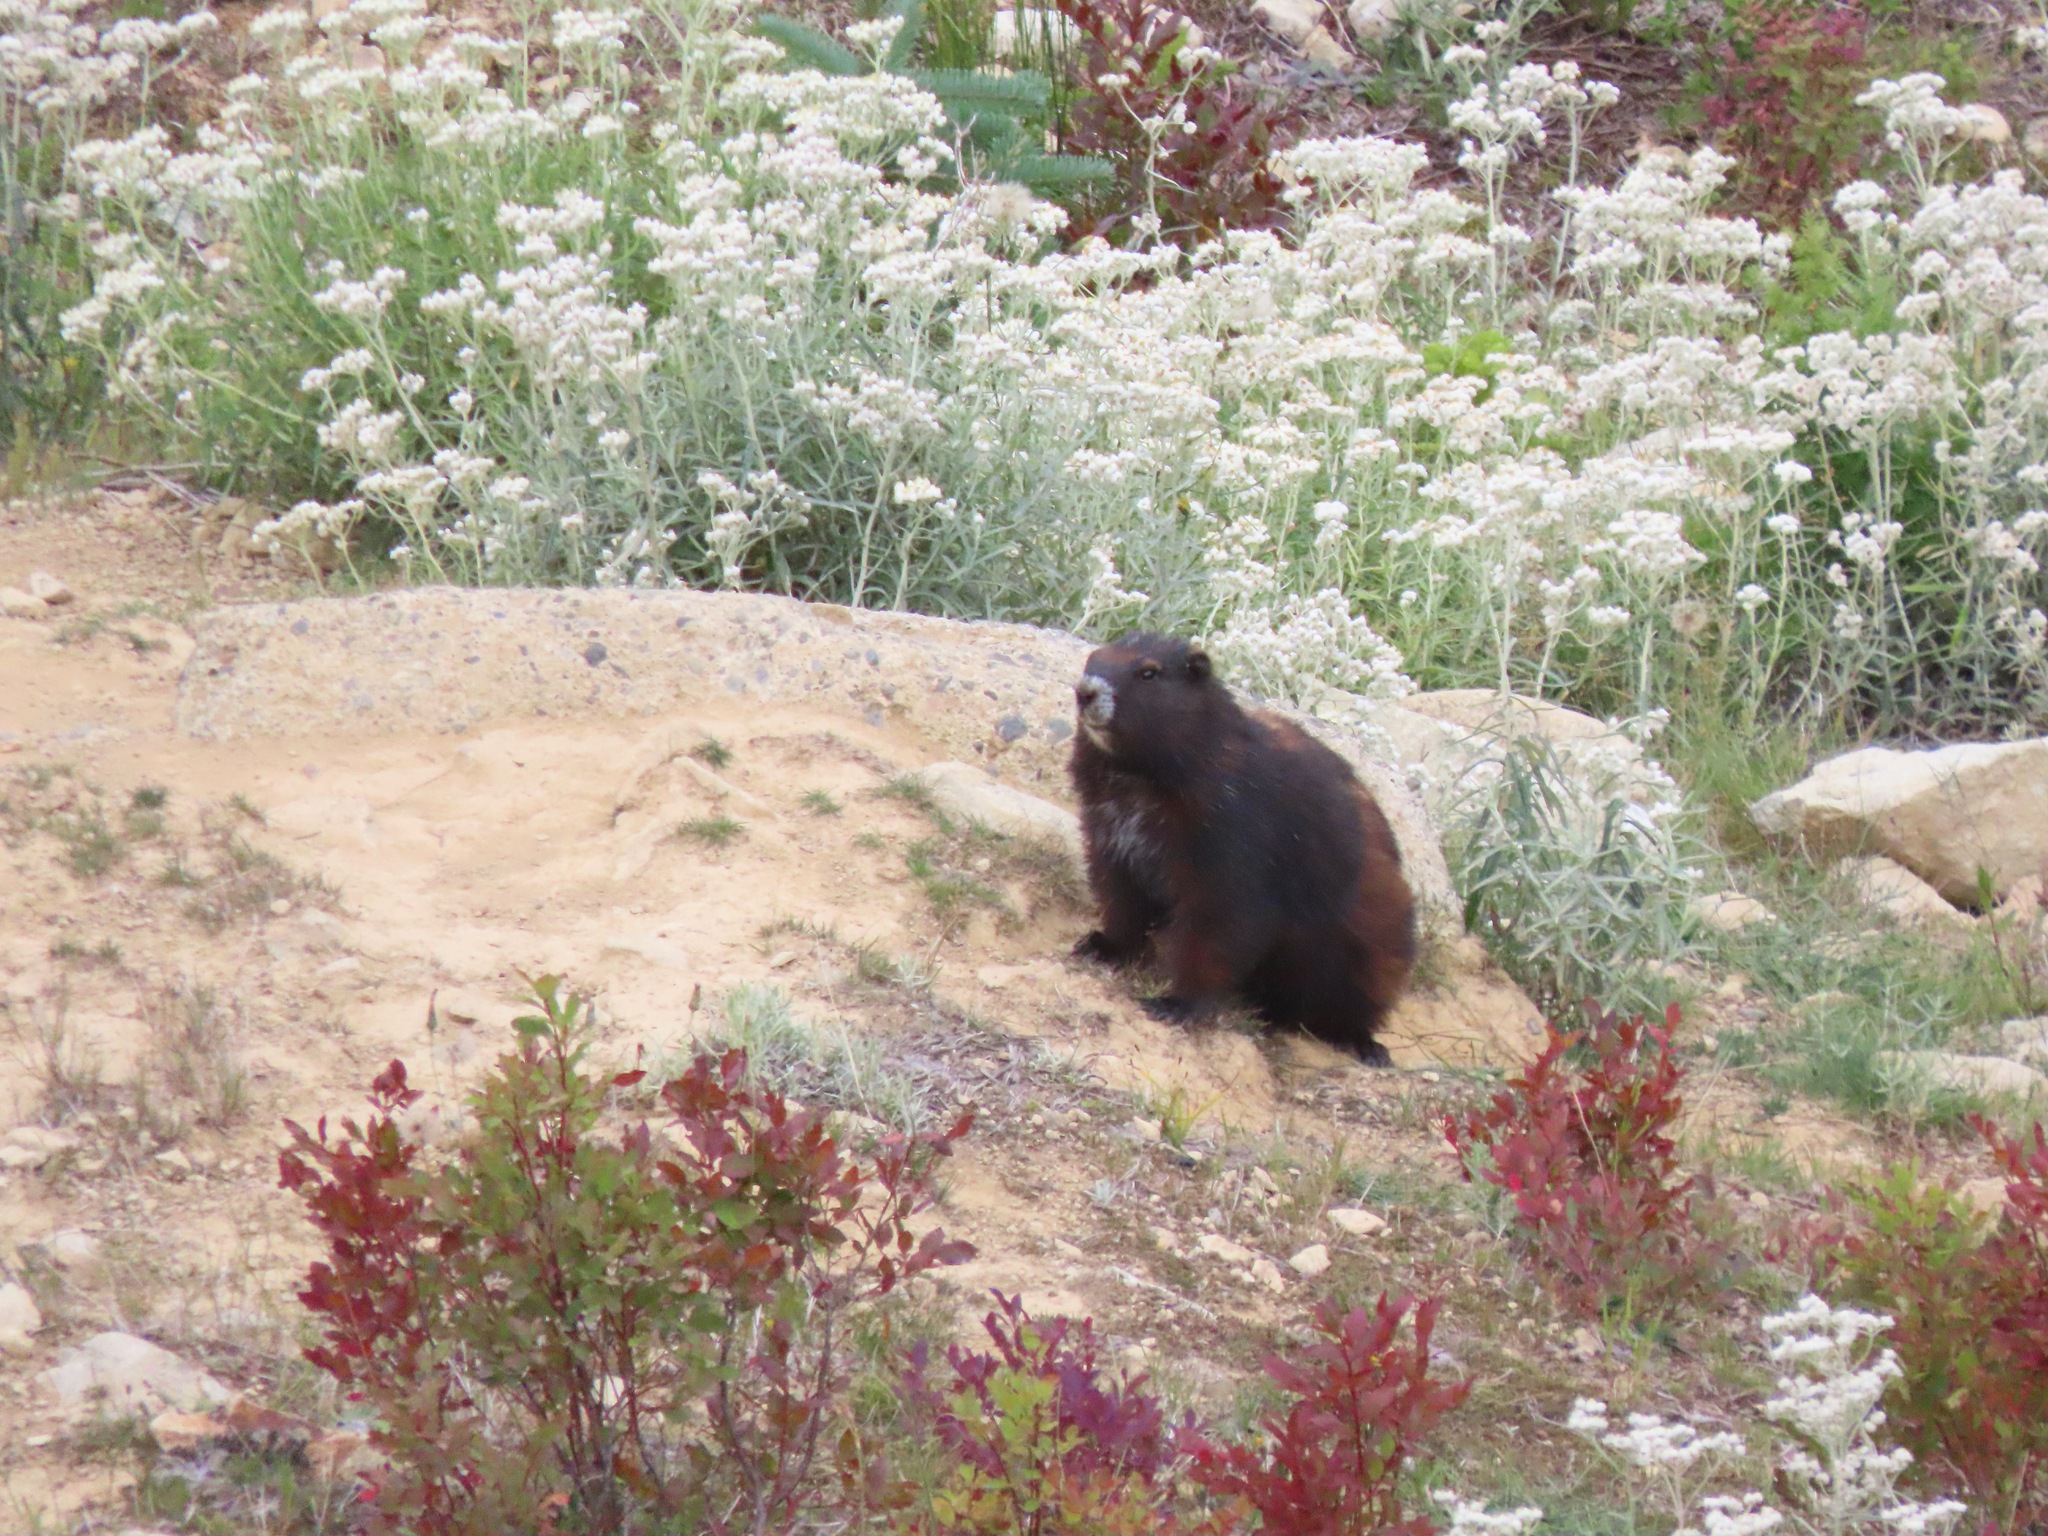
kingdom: Animalia
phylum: Chordata
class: Mammalia
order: Rodentia
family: Sciuridae
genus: Marmota
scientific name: Marmota vancouverensis
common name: Vancouver island marmot
